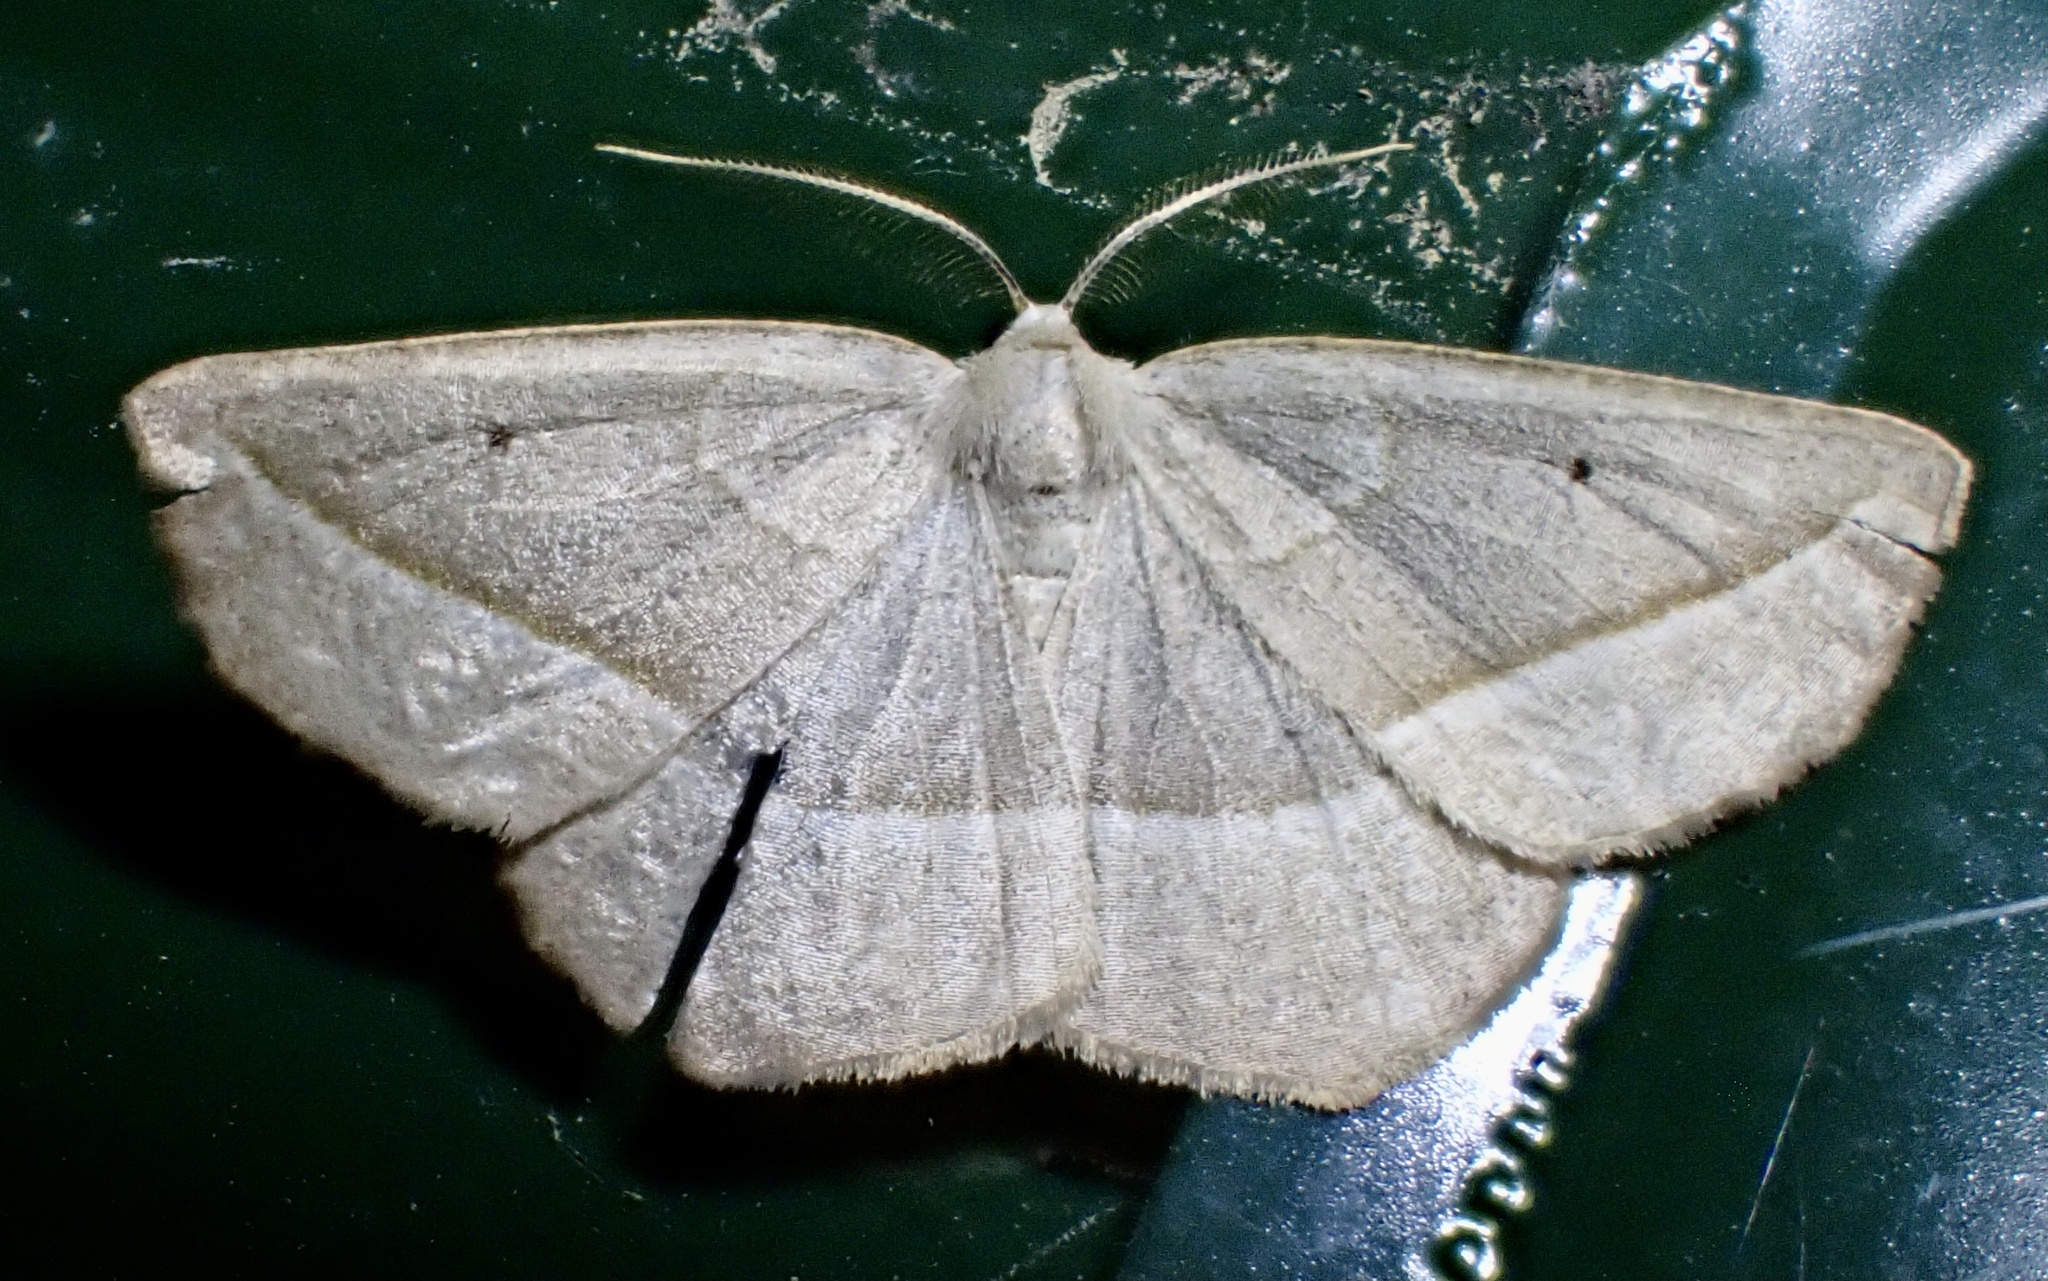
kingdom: Animalia
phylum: Arthropoda
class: Insecta
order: Lepidoptera
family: Geometridae
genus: Eusarca
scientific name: Eusarca confusaria
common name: Confused eusarca
